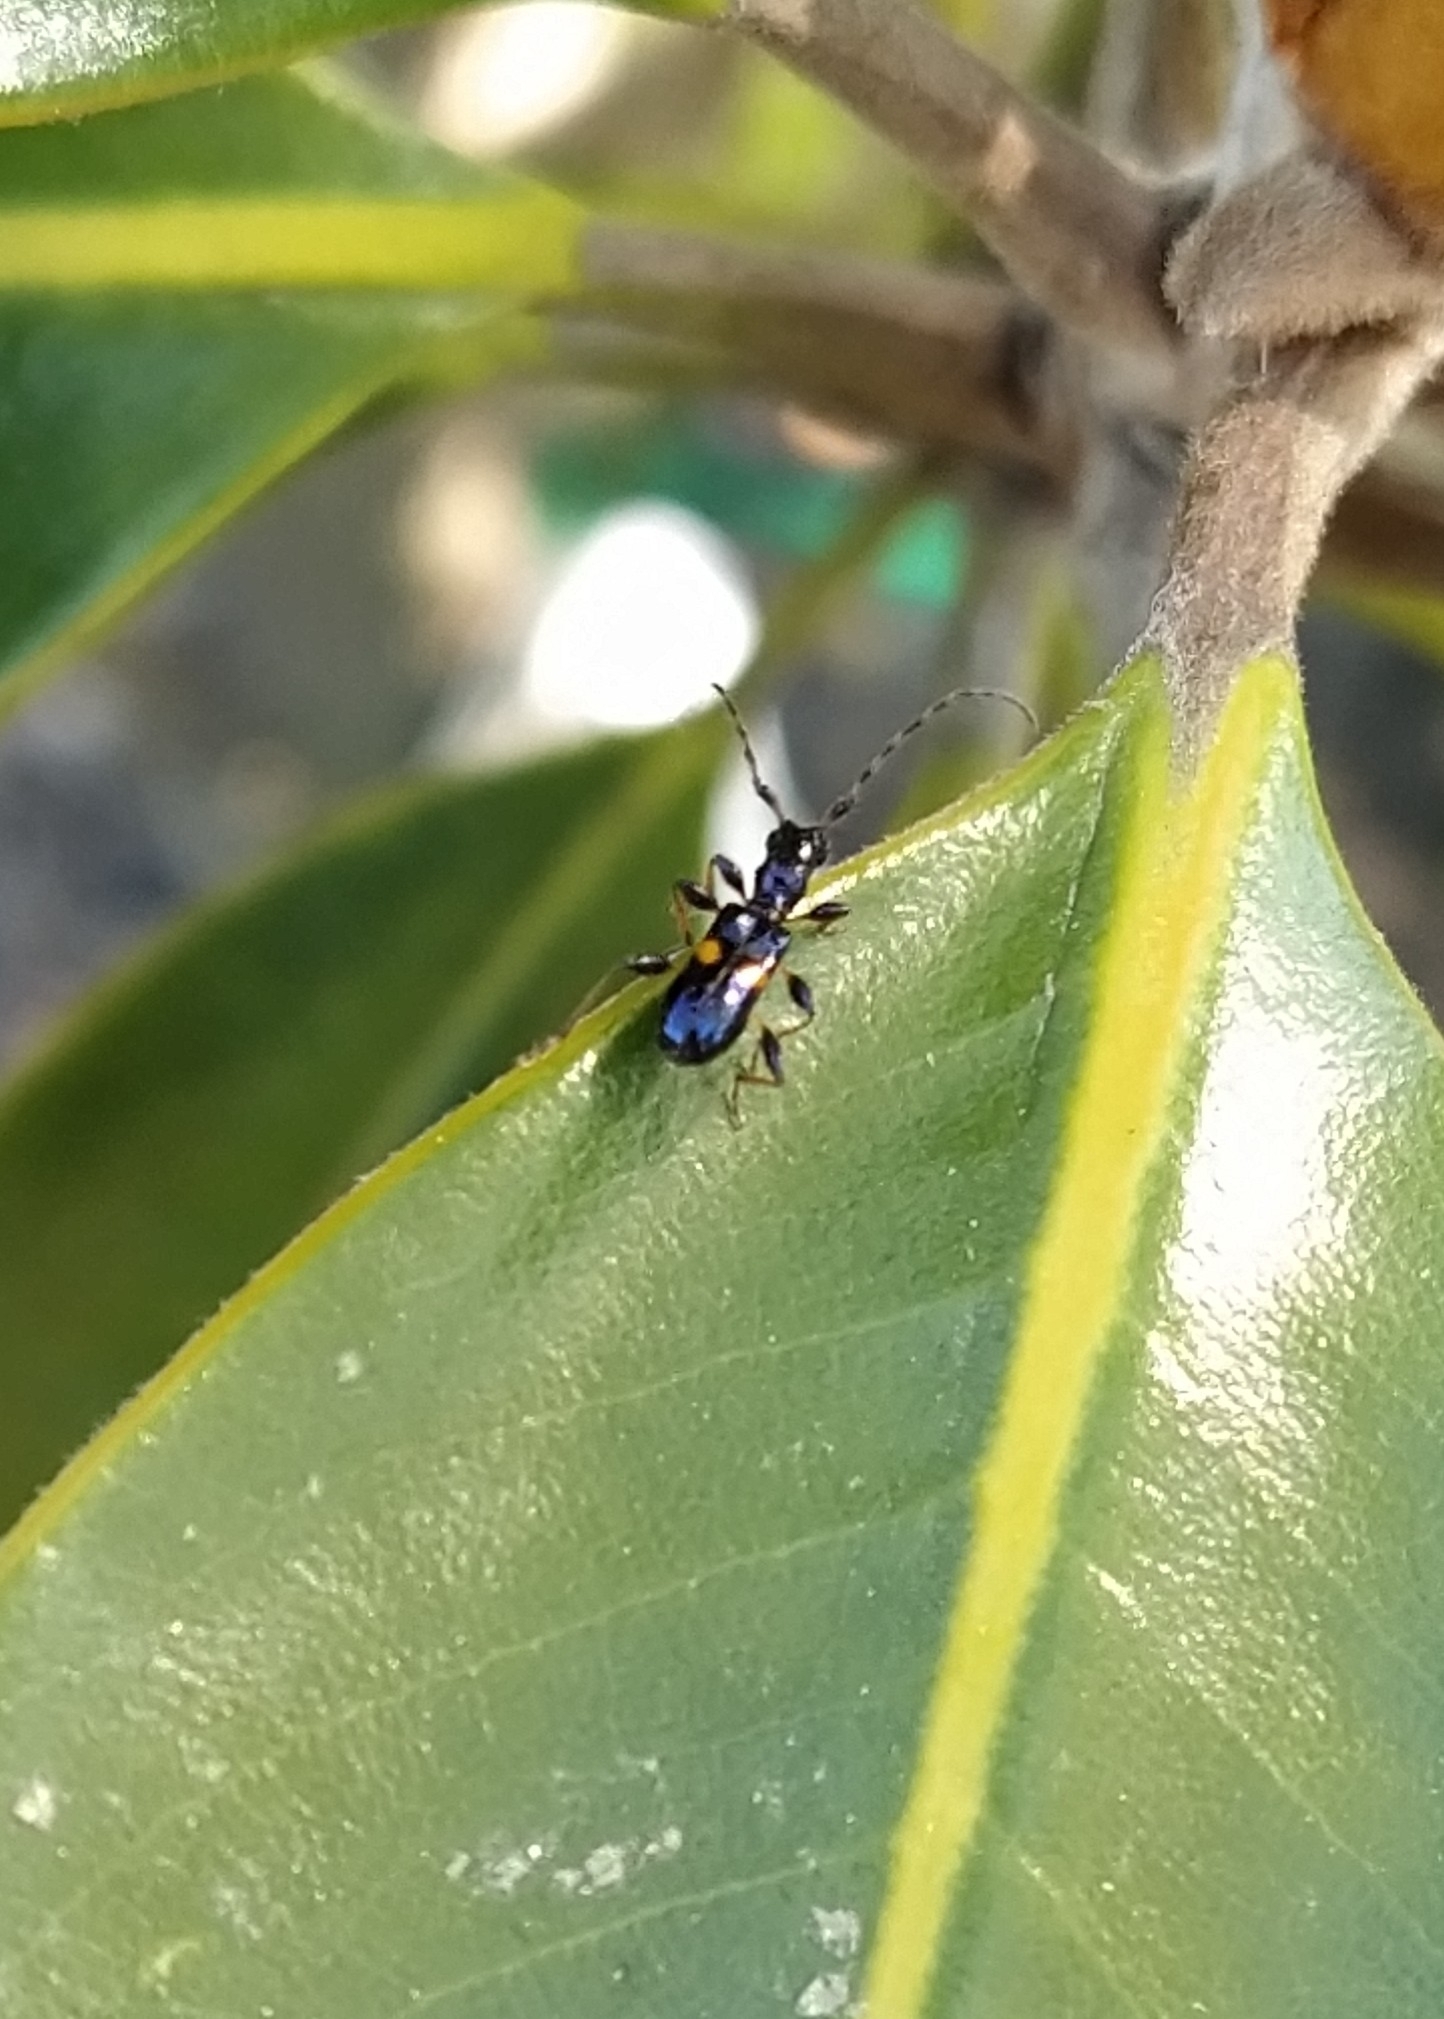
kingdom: Animalia
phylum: Arthropoda
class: Insecta
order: Coleoptera
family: Cerambycidae
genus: Zorion
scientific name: Zorion guttigerum
